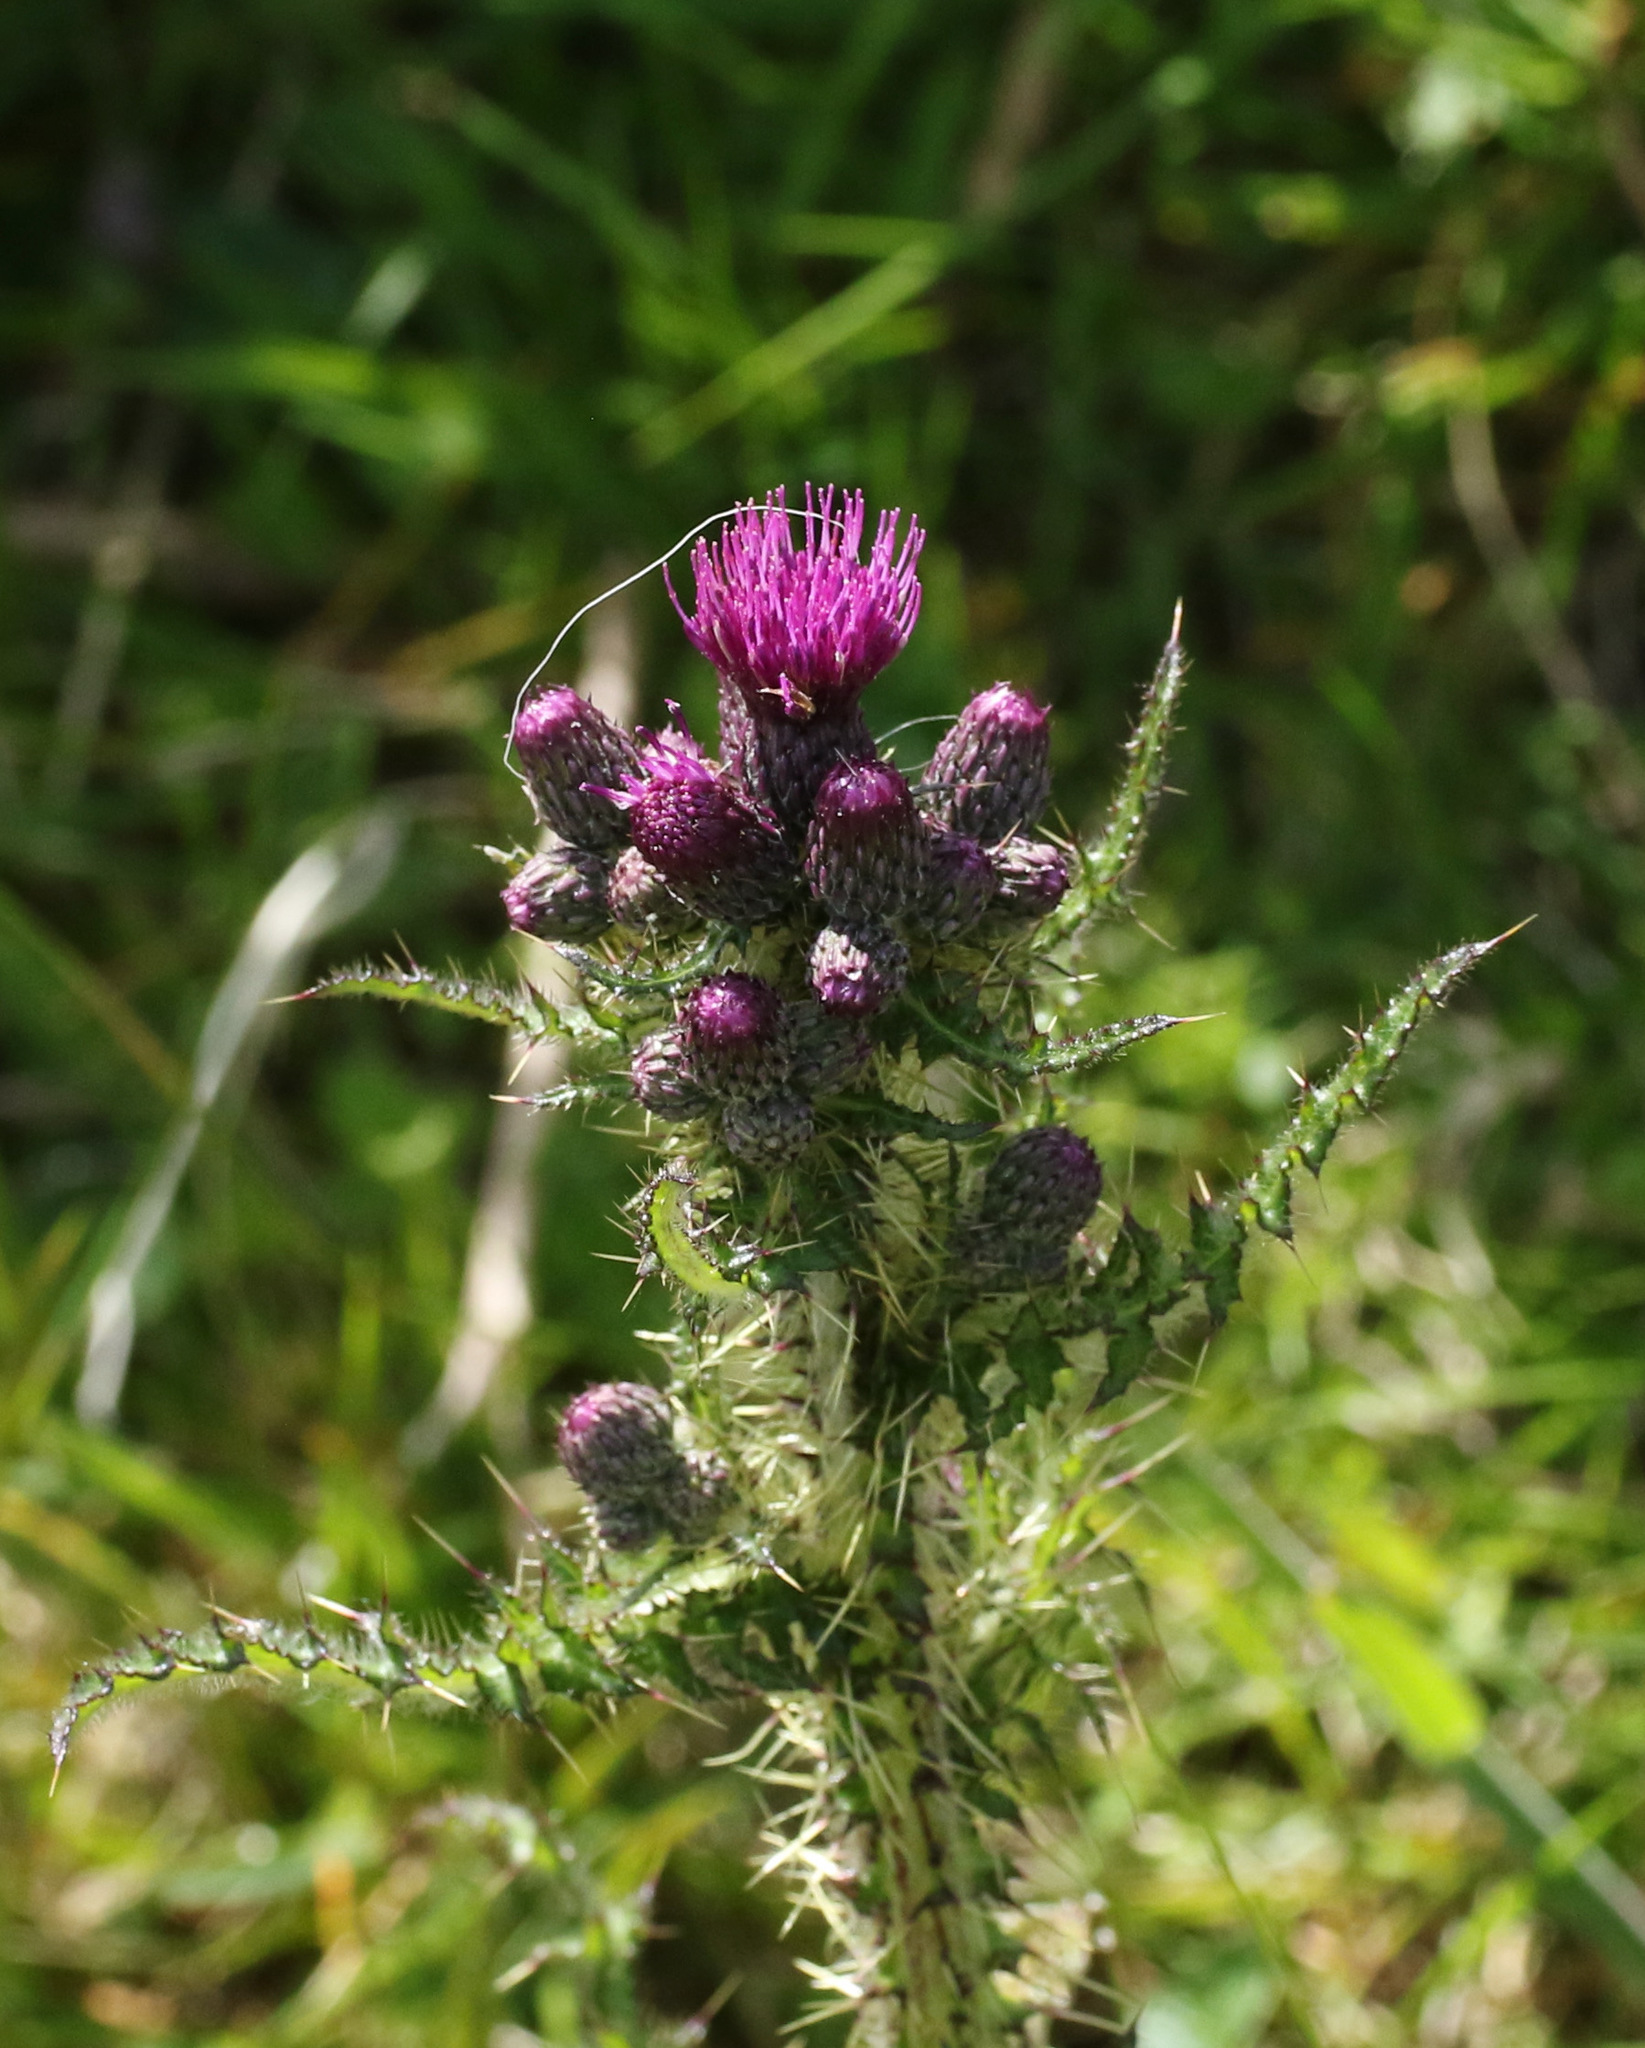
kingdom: Plantae
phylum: Tracheophyta
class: Magnoliopsida
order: Asterales
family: Asteraceae
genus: Cirsium
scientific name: Cirsium palustre
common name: Marsh thistle
